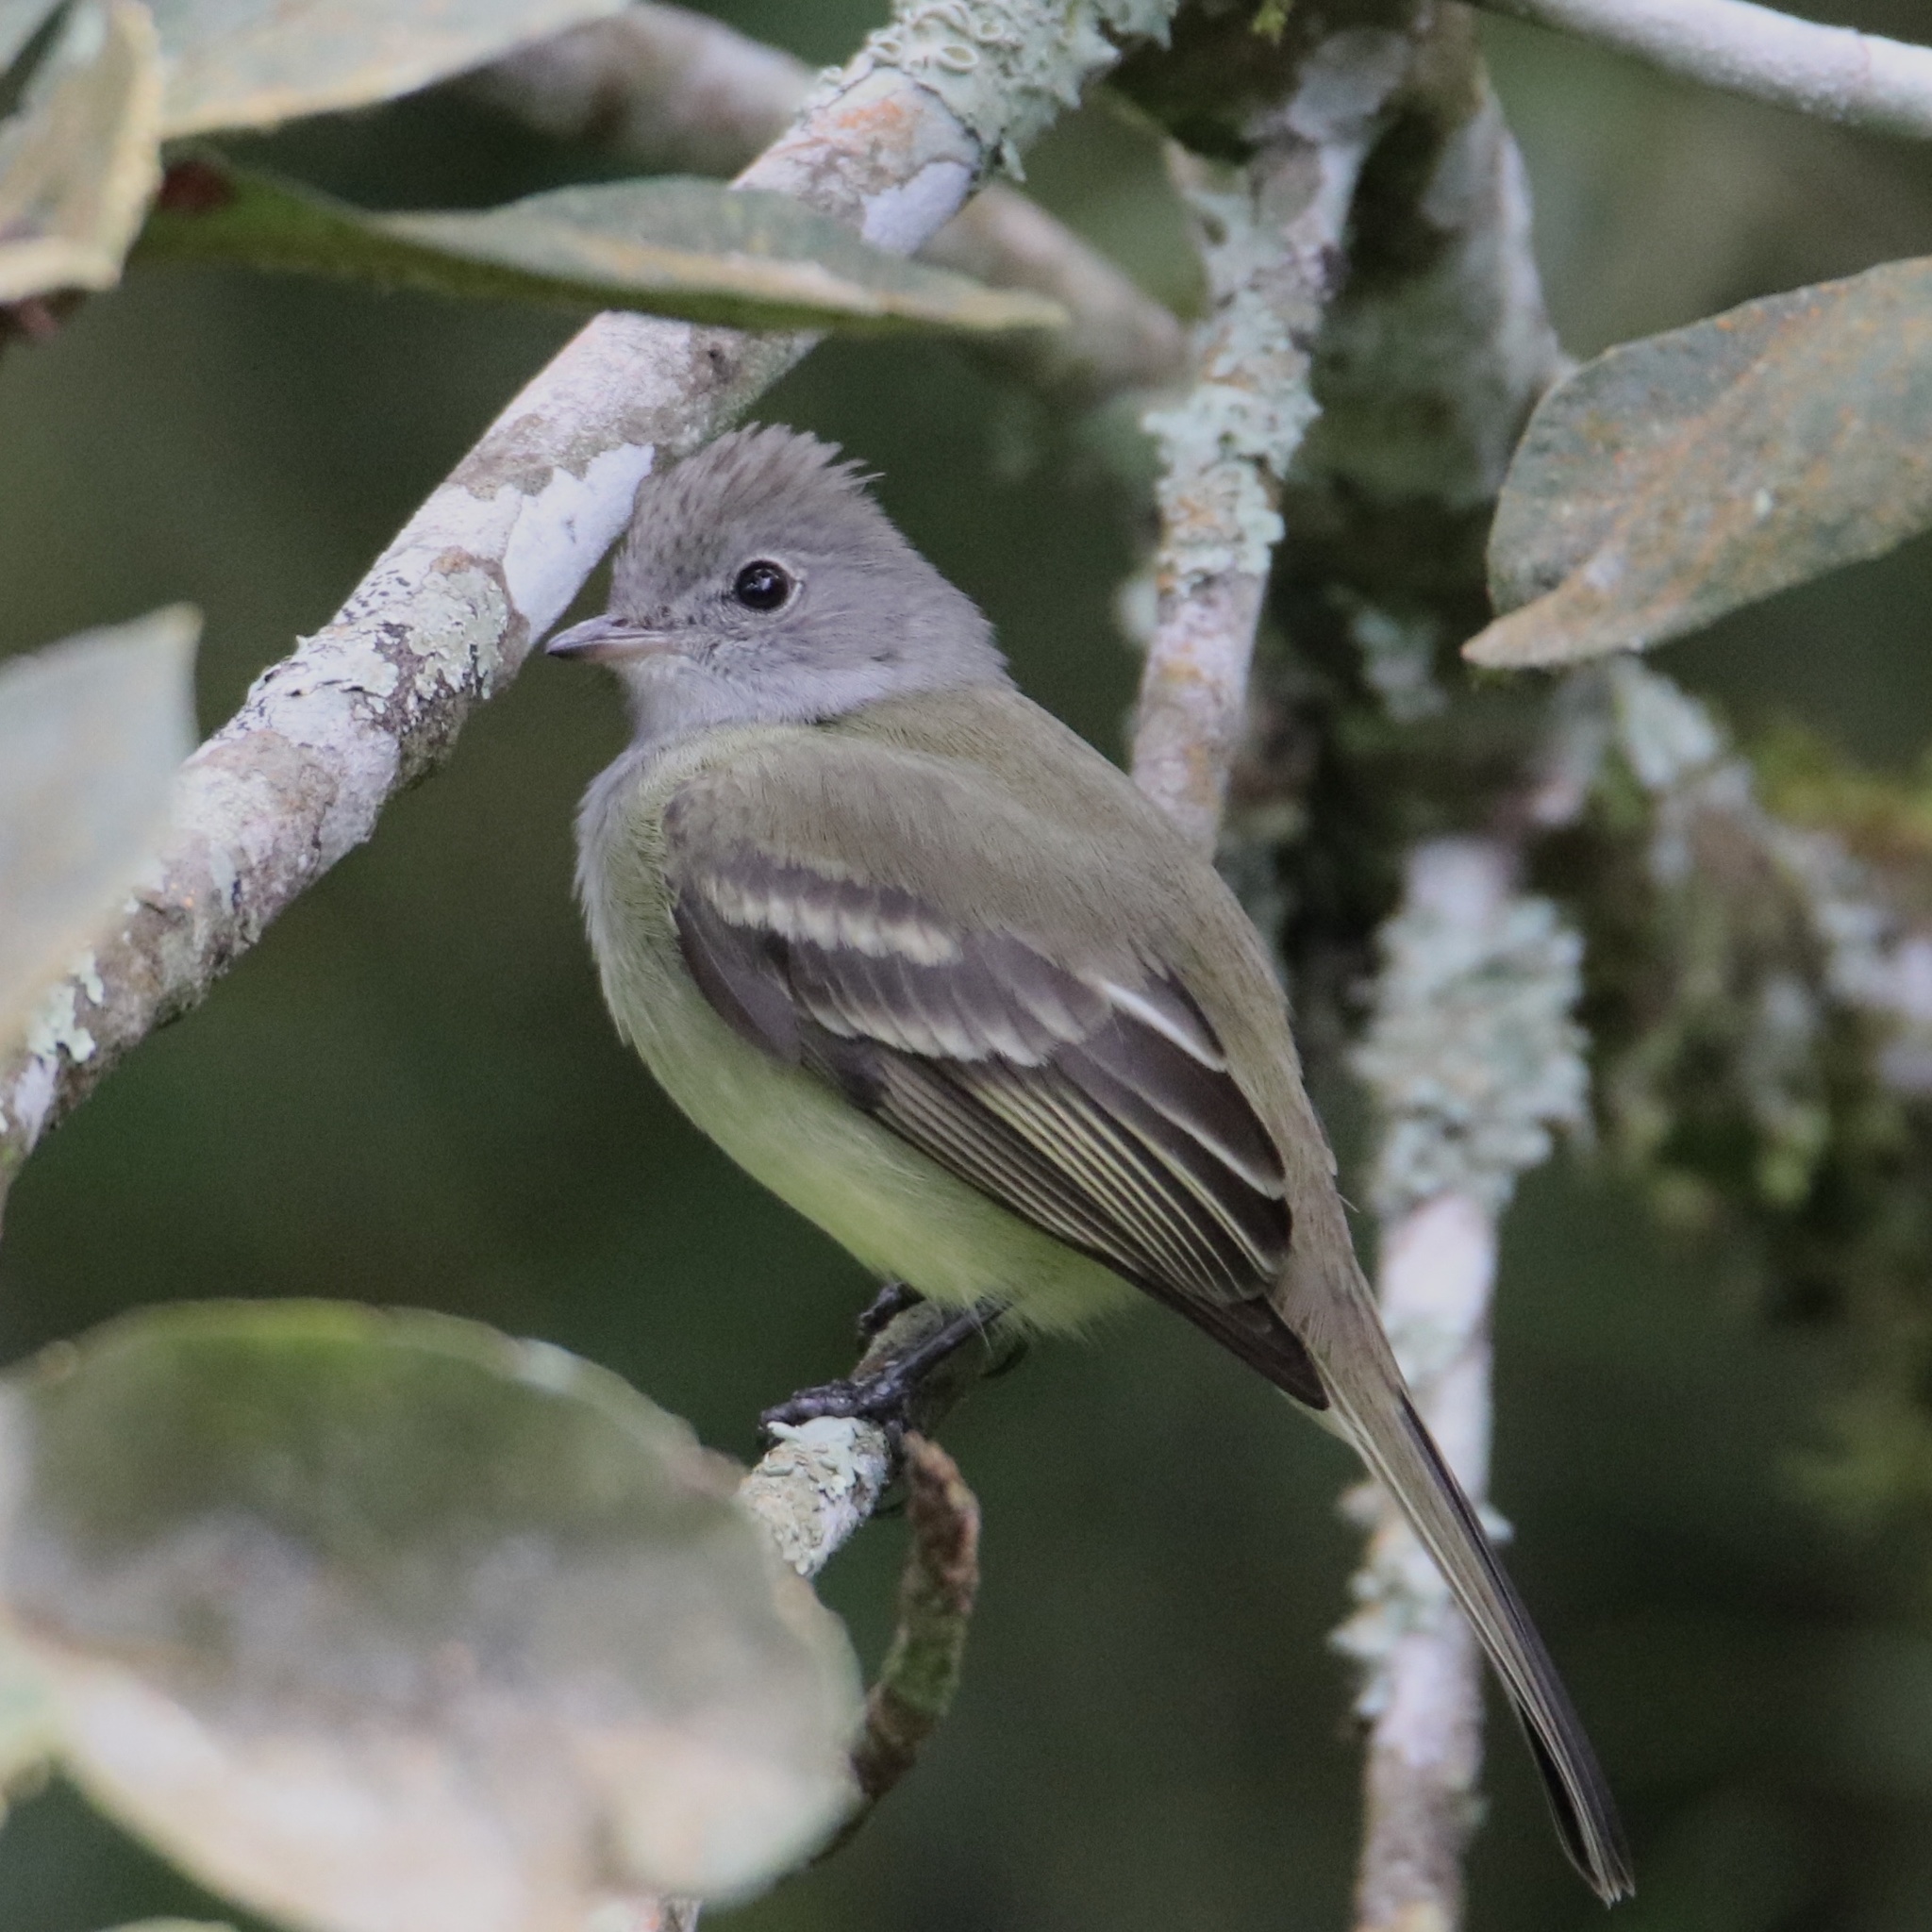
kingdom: Animalia
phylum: Chordata
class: Aves
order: Passeriformes
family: Tyrannidae
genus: Elaenia
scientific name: Elaenia flavogaster
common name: Yellow-bellied elaenia
